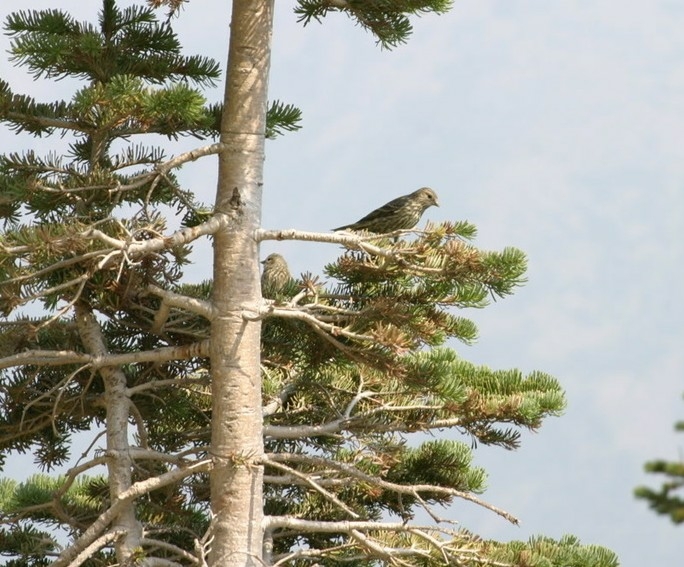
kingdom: Animalia
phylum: Chordata
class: Aves
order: Passeriformes
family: Fringillidae
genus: Spinus
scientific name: Spinus pinus
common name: Pine siskin
